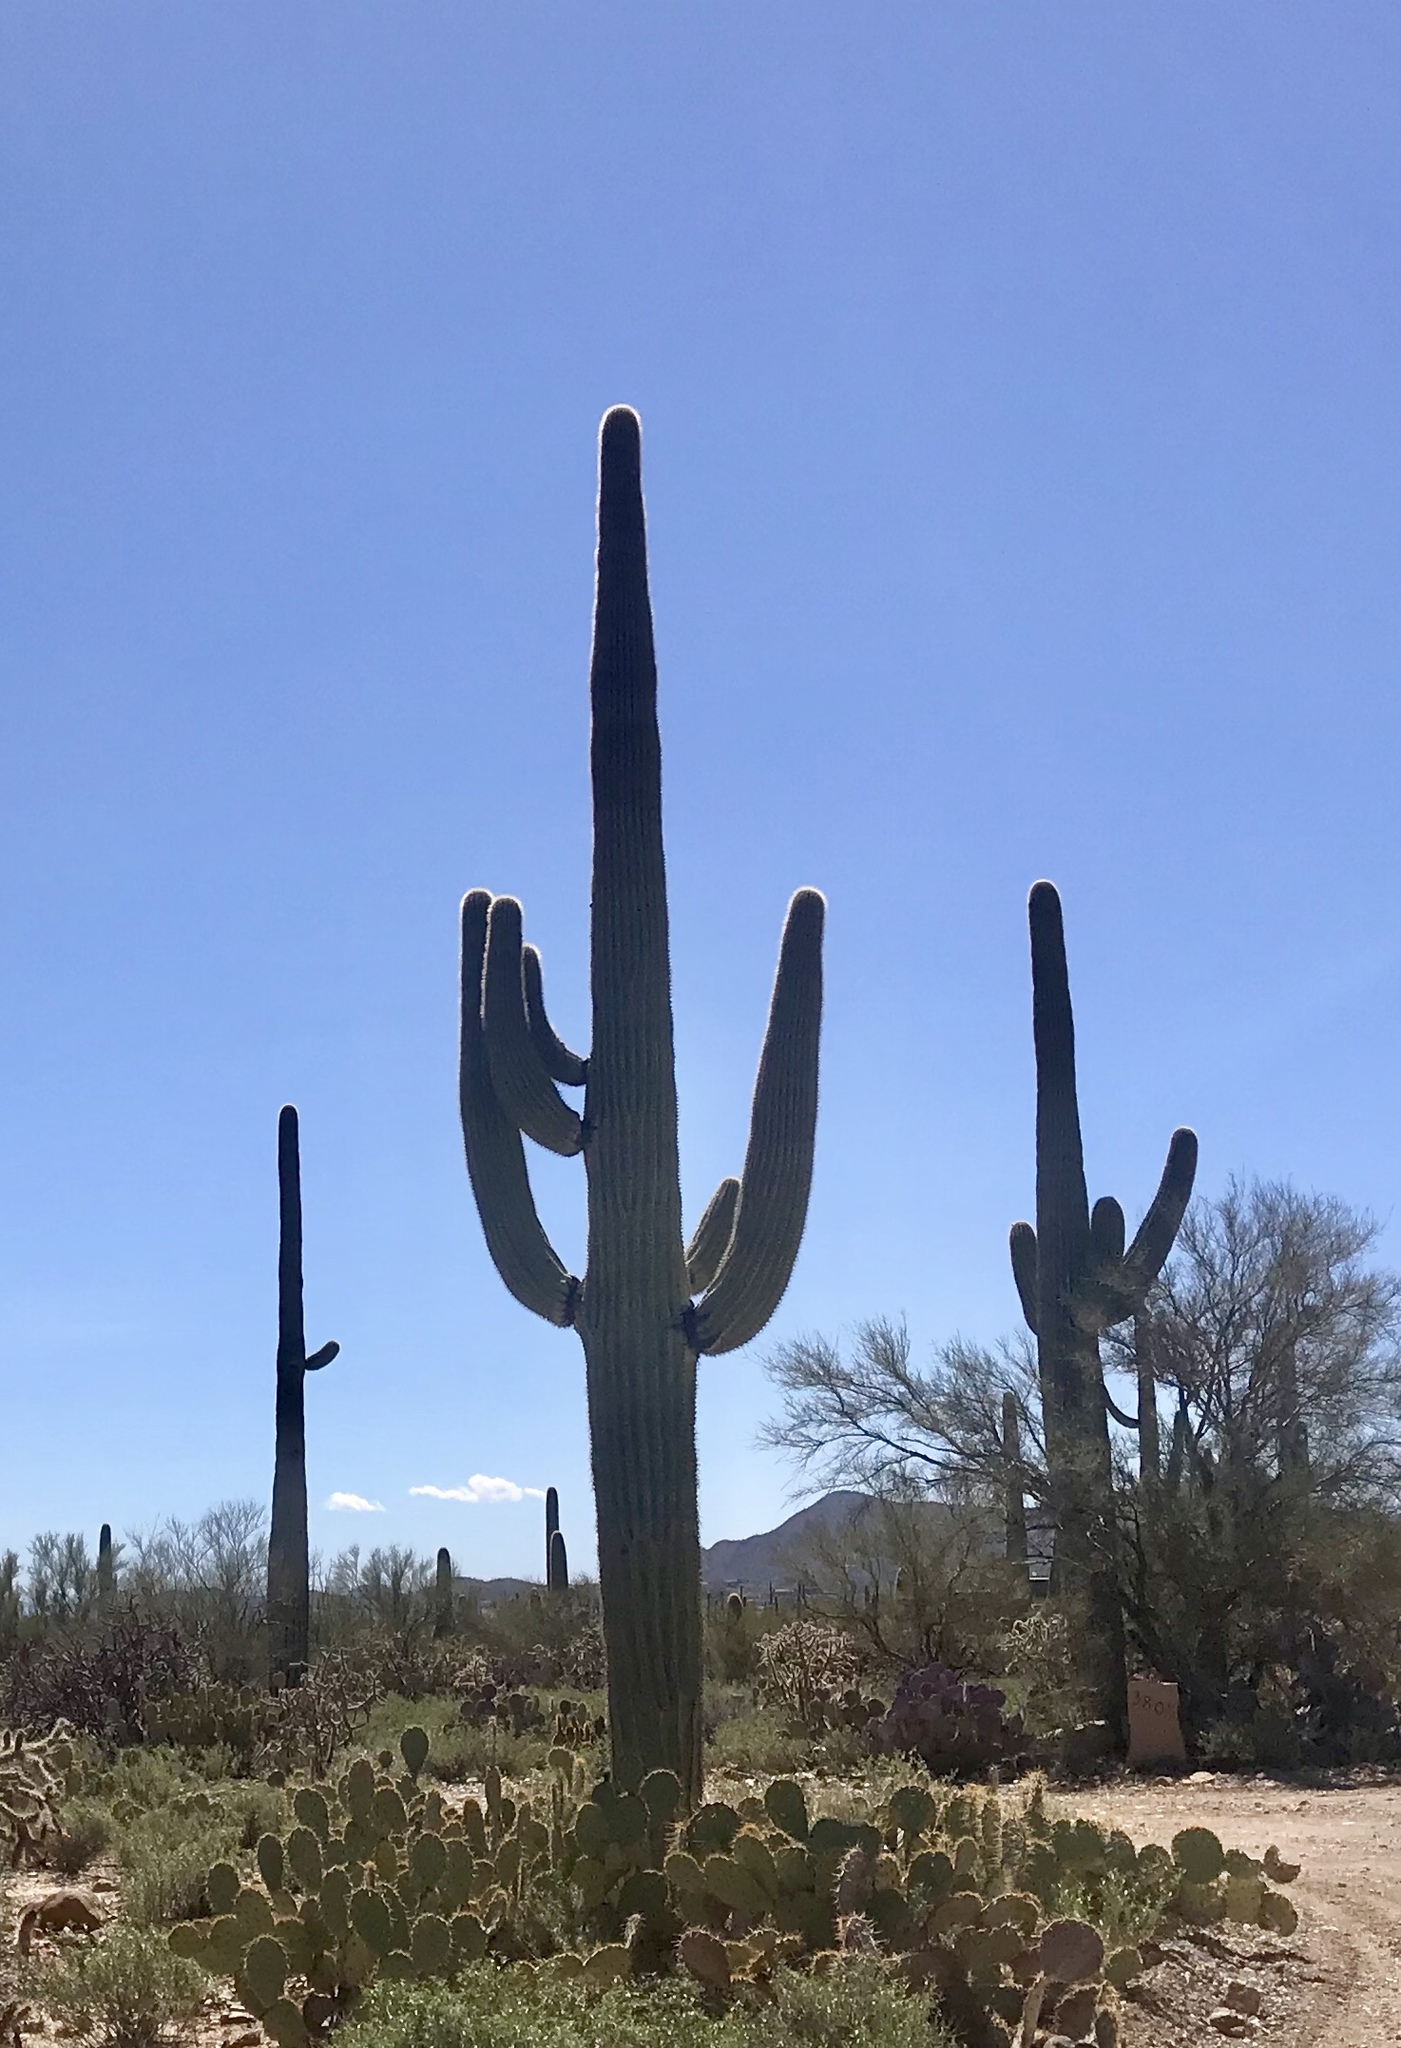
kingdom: Plantae
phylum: Tracheophyta
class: Magnoliopsida
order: Caryophyllales
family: Cactaceae
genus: Carnegiea
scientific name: Carnegiea gigantea
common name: Saguaro
